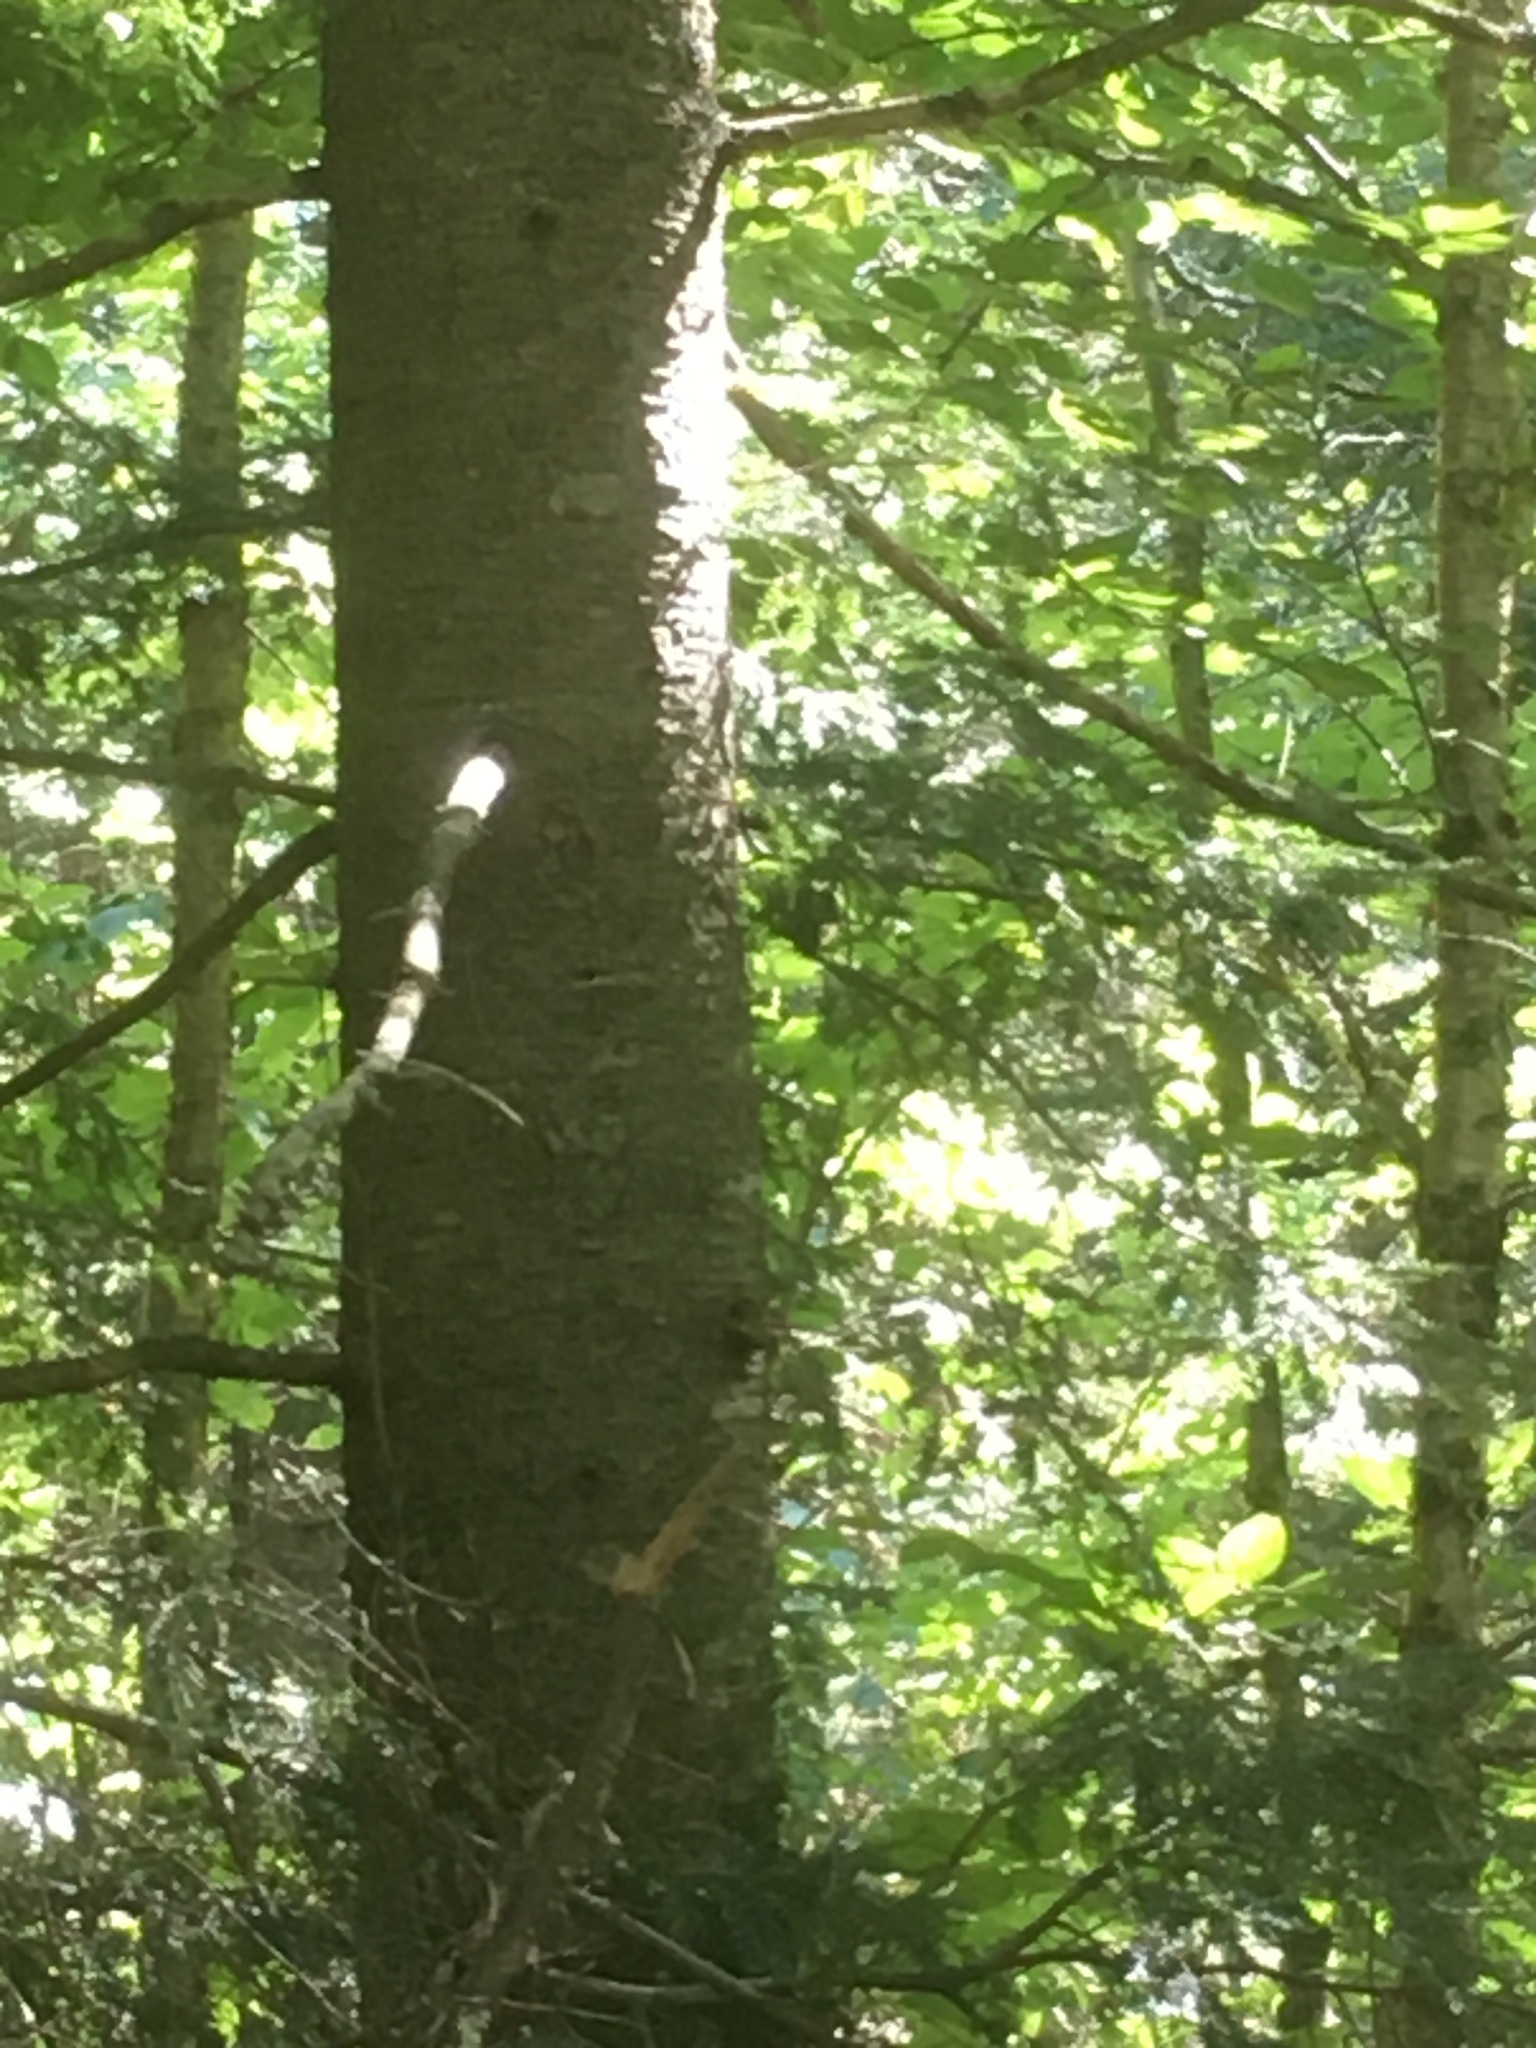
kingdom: Plantae
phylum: Tracheophyta
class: Pinopsida
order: Pinales
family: Pinaceae
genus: Abies
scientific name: Abies balsamea
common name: Balsam fir
